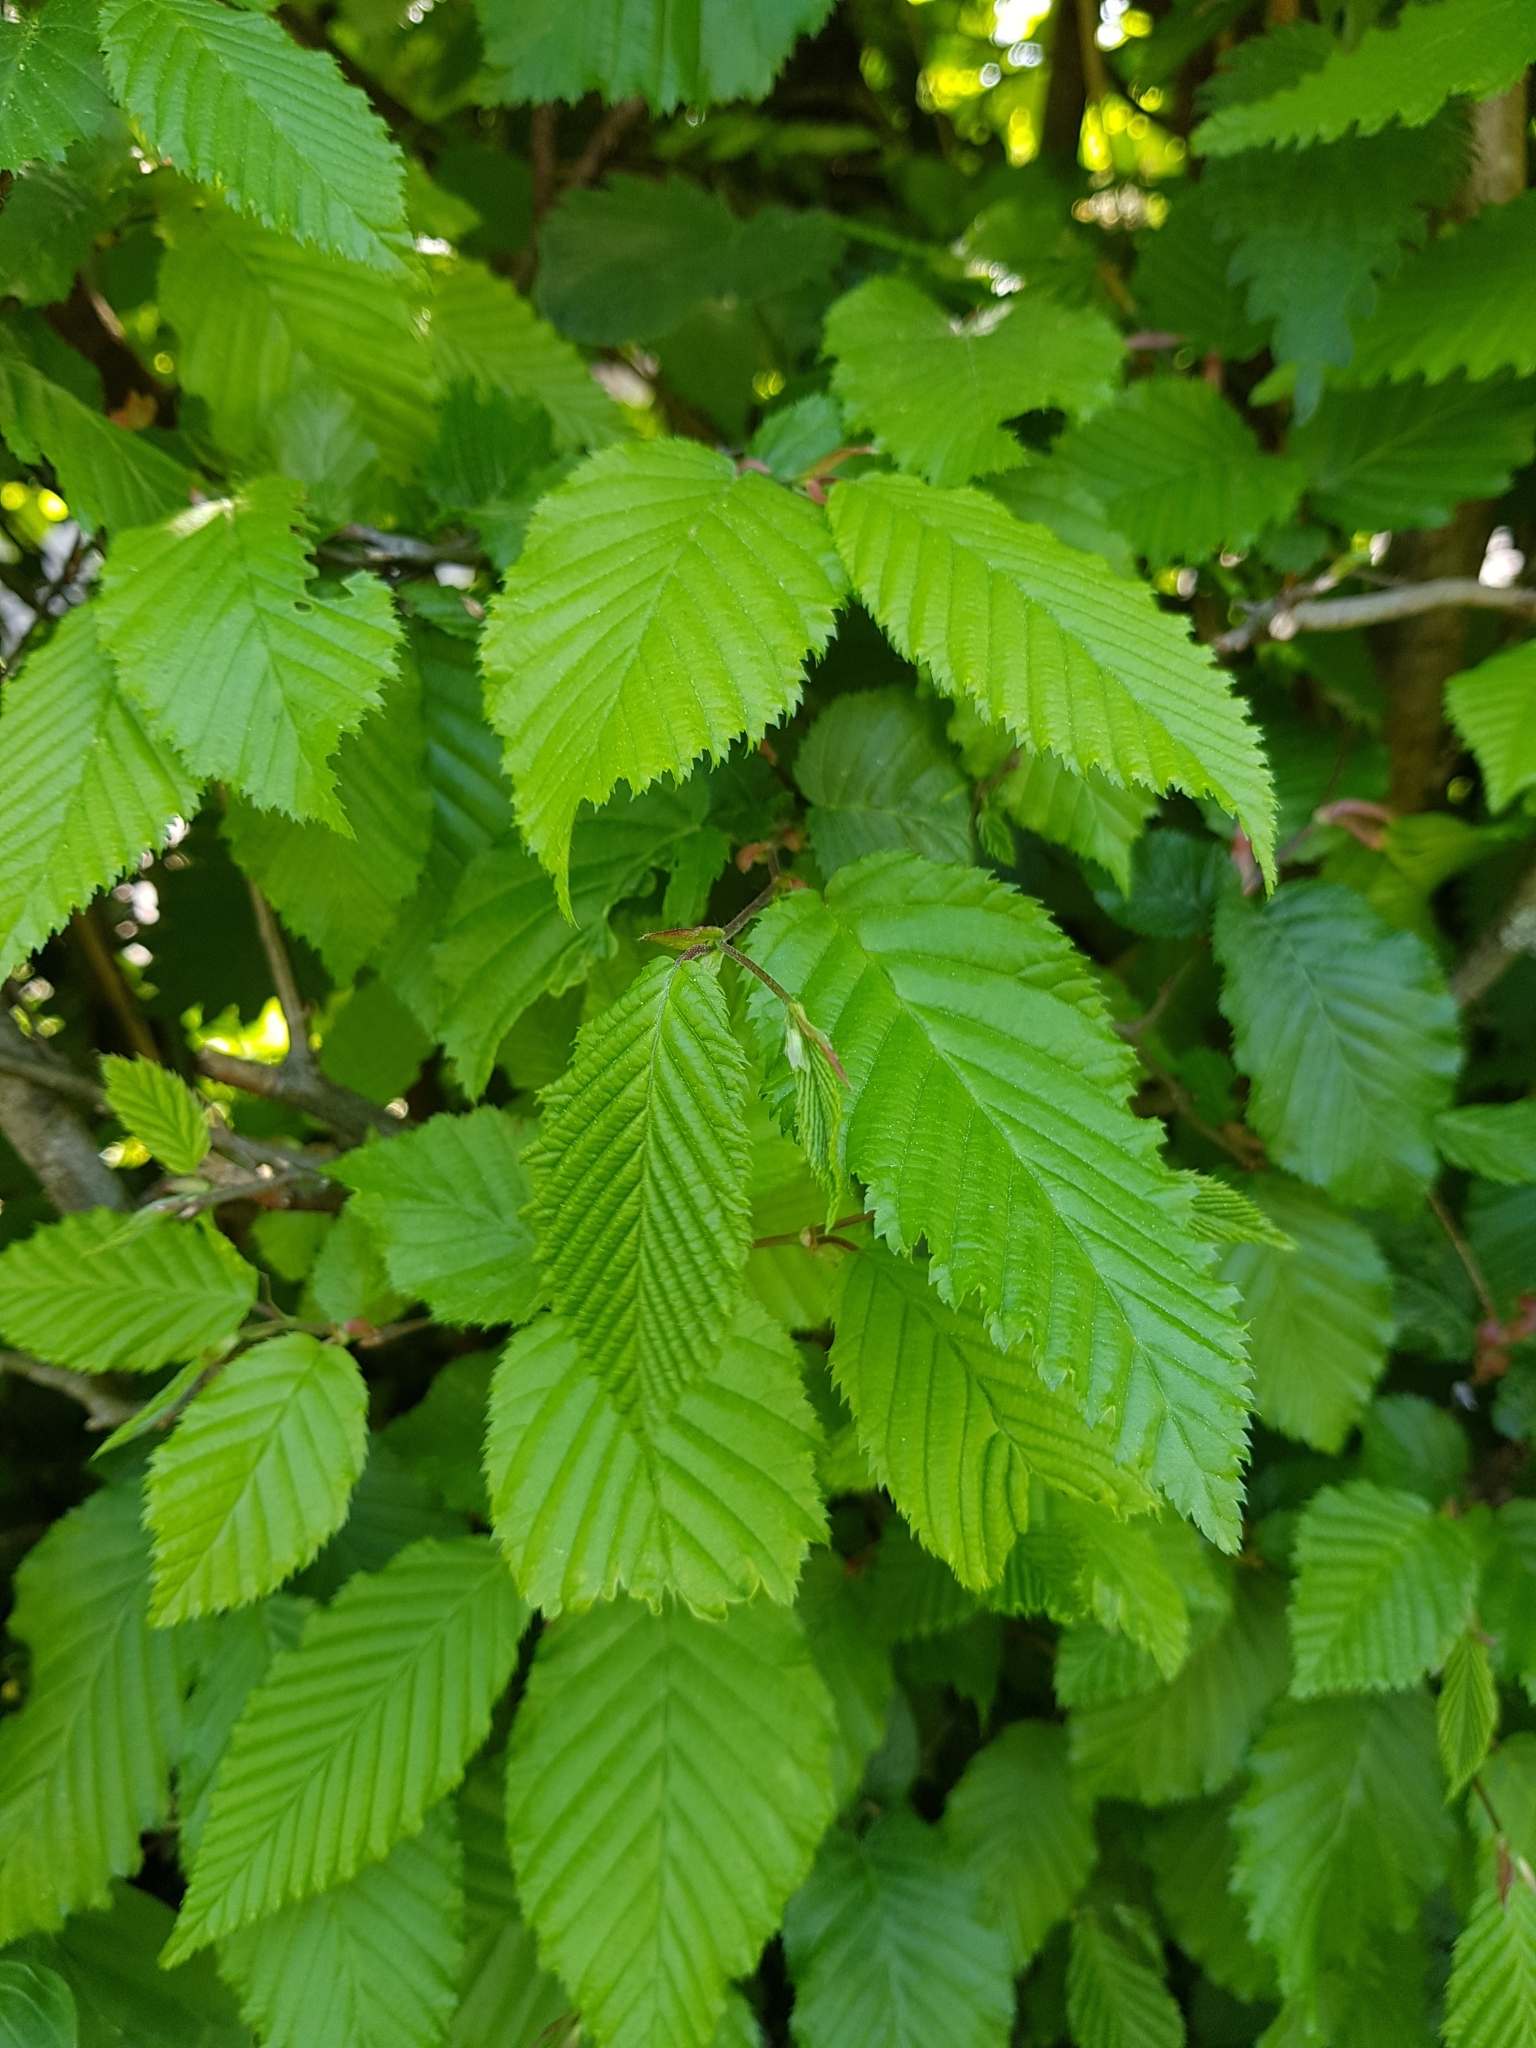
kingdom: Plantae
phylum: Tracheophyta
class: Magnoliopsida
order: Fagales
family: Betulaceae
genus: Carpinus
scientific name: Carpinus betulus
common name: Hornbeam
